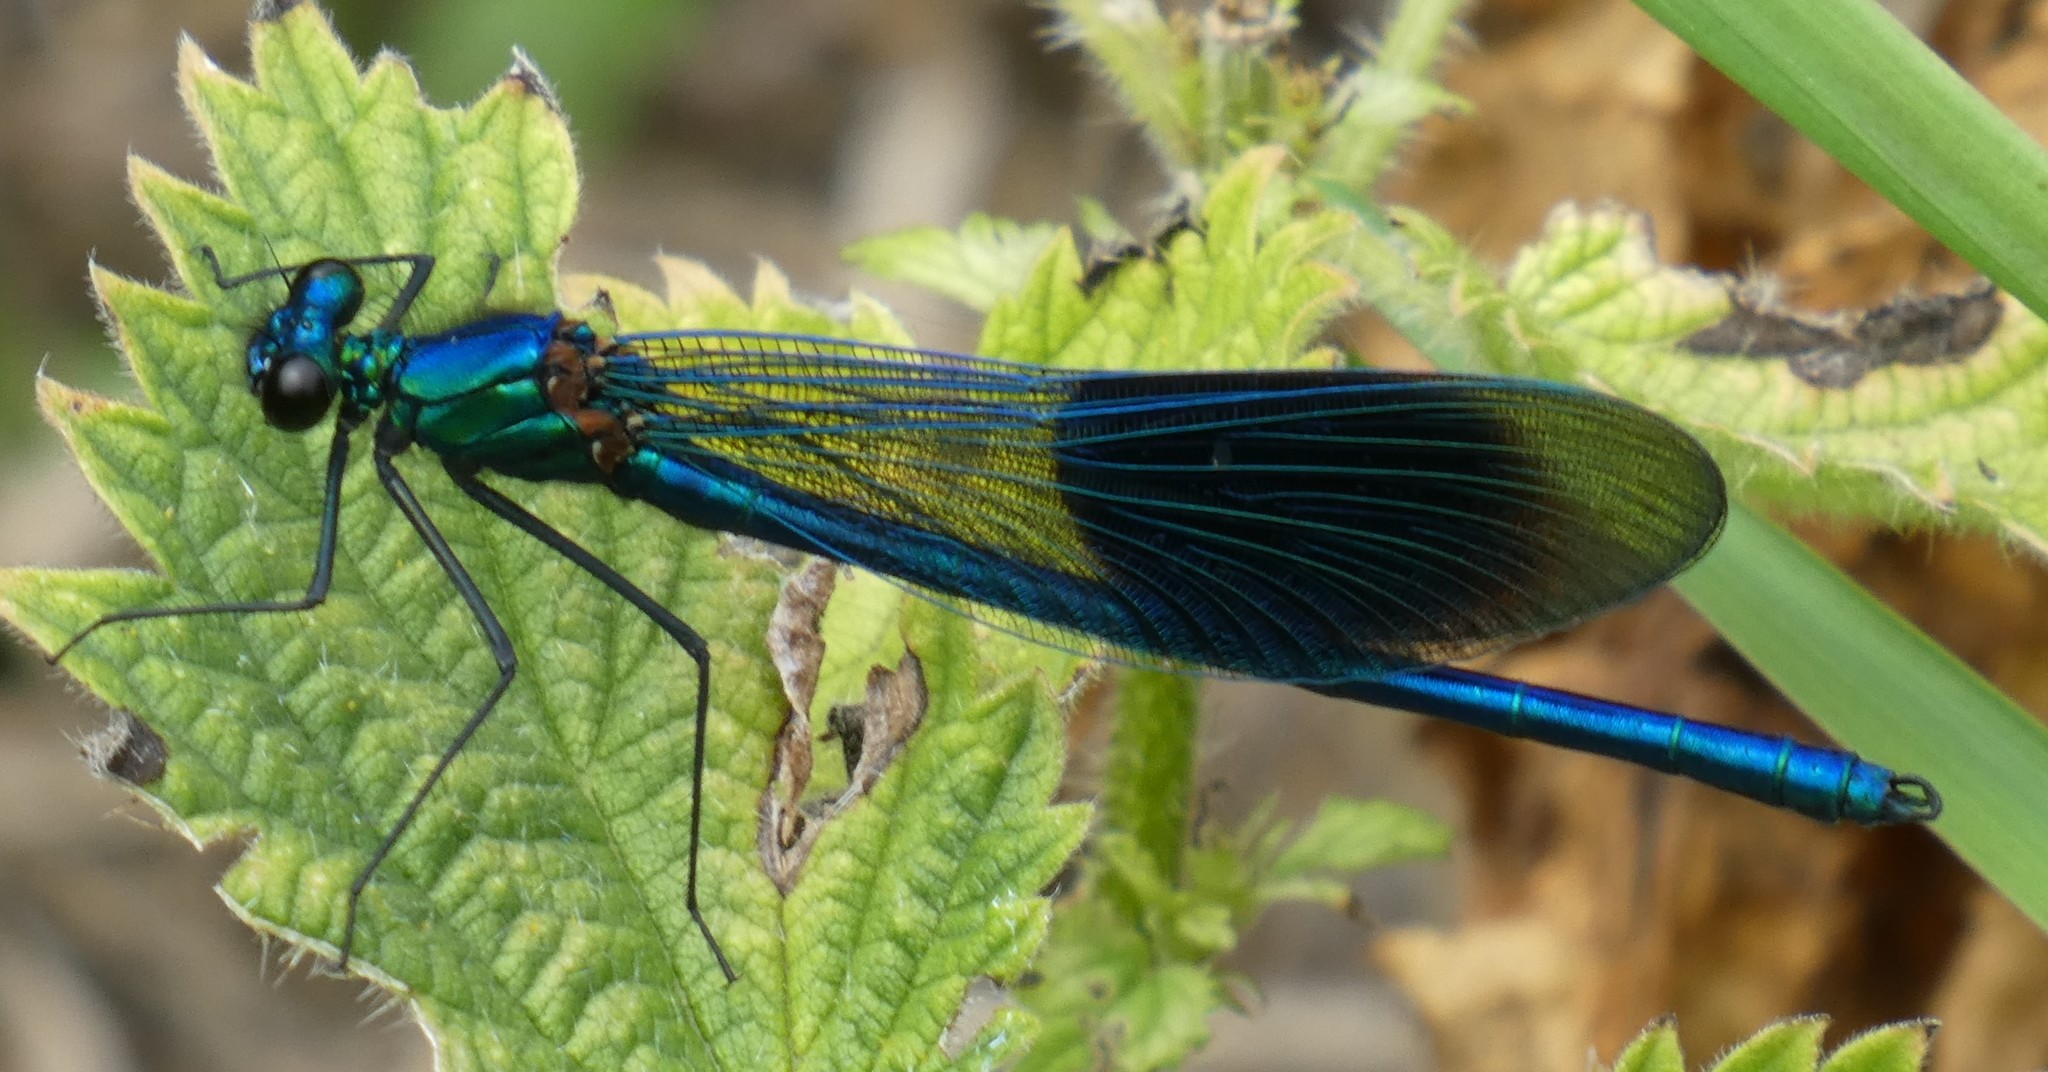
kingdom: Animalia
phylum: Arthropoda
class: Insecta
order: Odonata
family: Calopterygidae
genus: Calopteryx
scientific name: Calopteryx splendens
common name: Banded demoiselle
